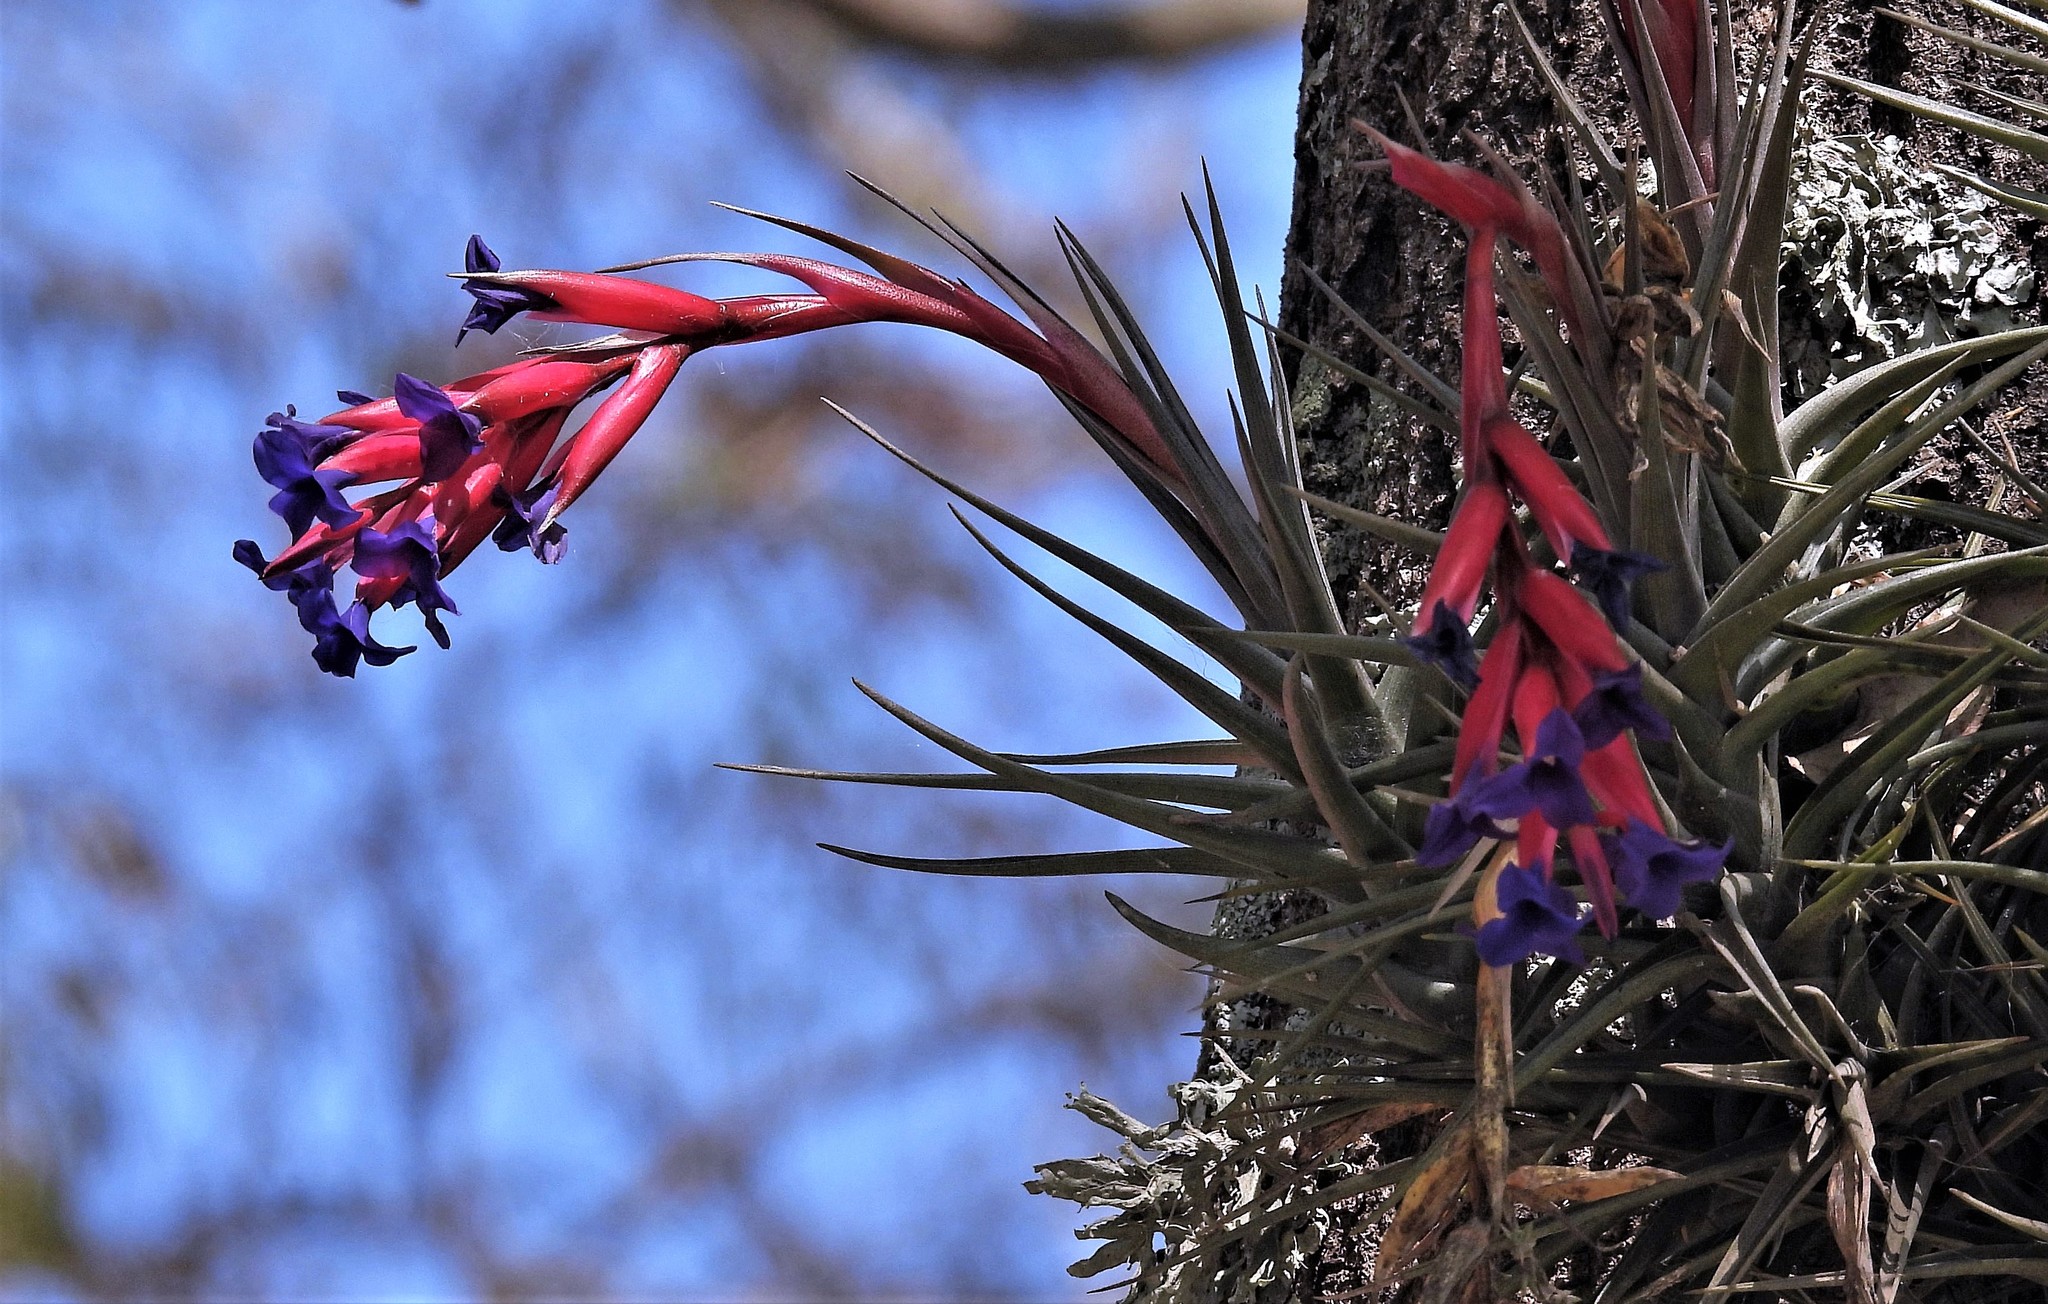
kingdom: Plantae
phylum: Tracheophyta
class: Liliopsida
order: Poales
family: Bromeliaceae
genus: Tillandsia
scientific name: Tillandsia aeranthos
